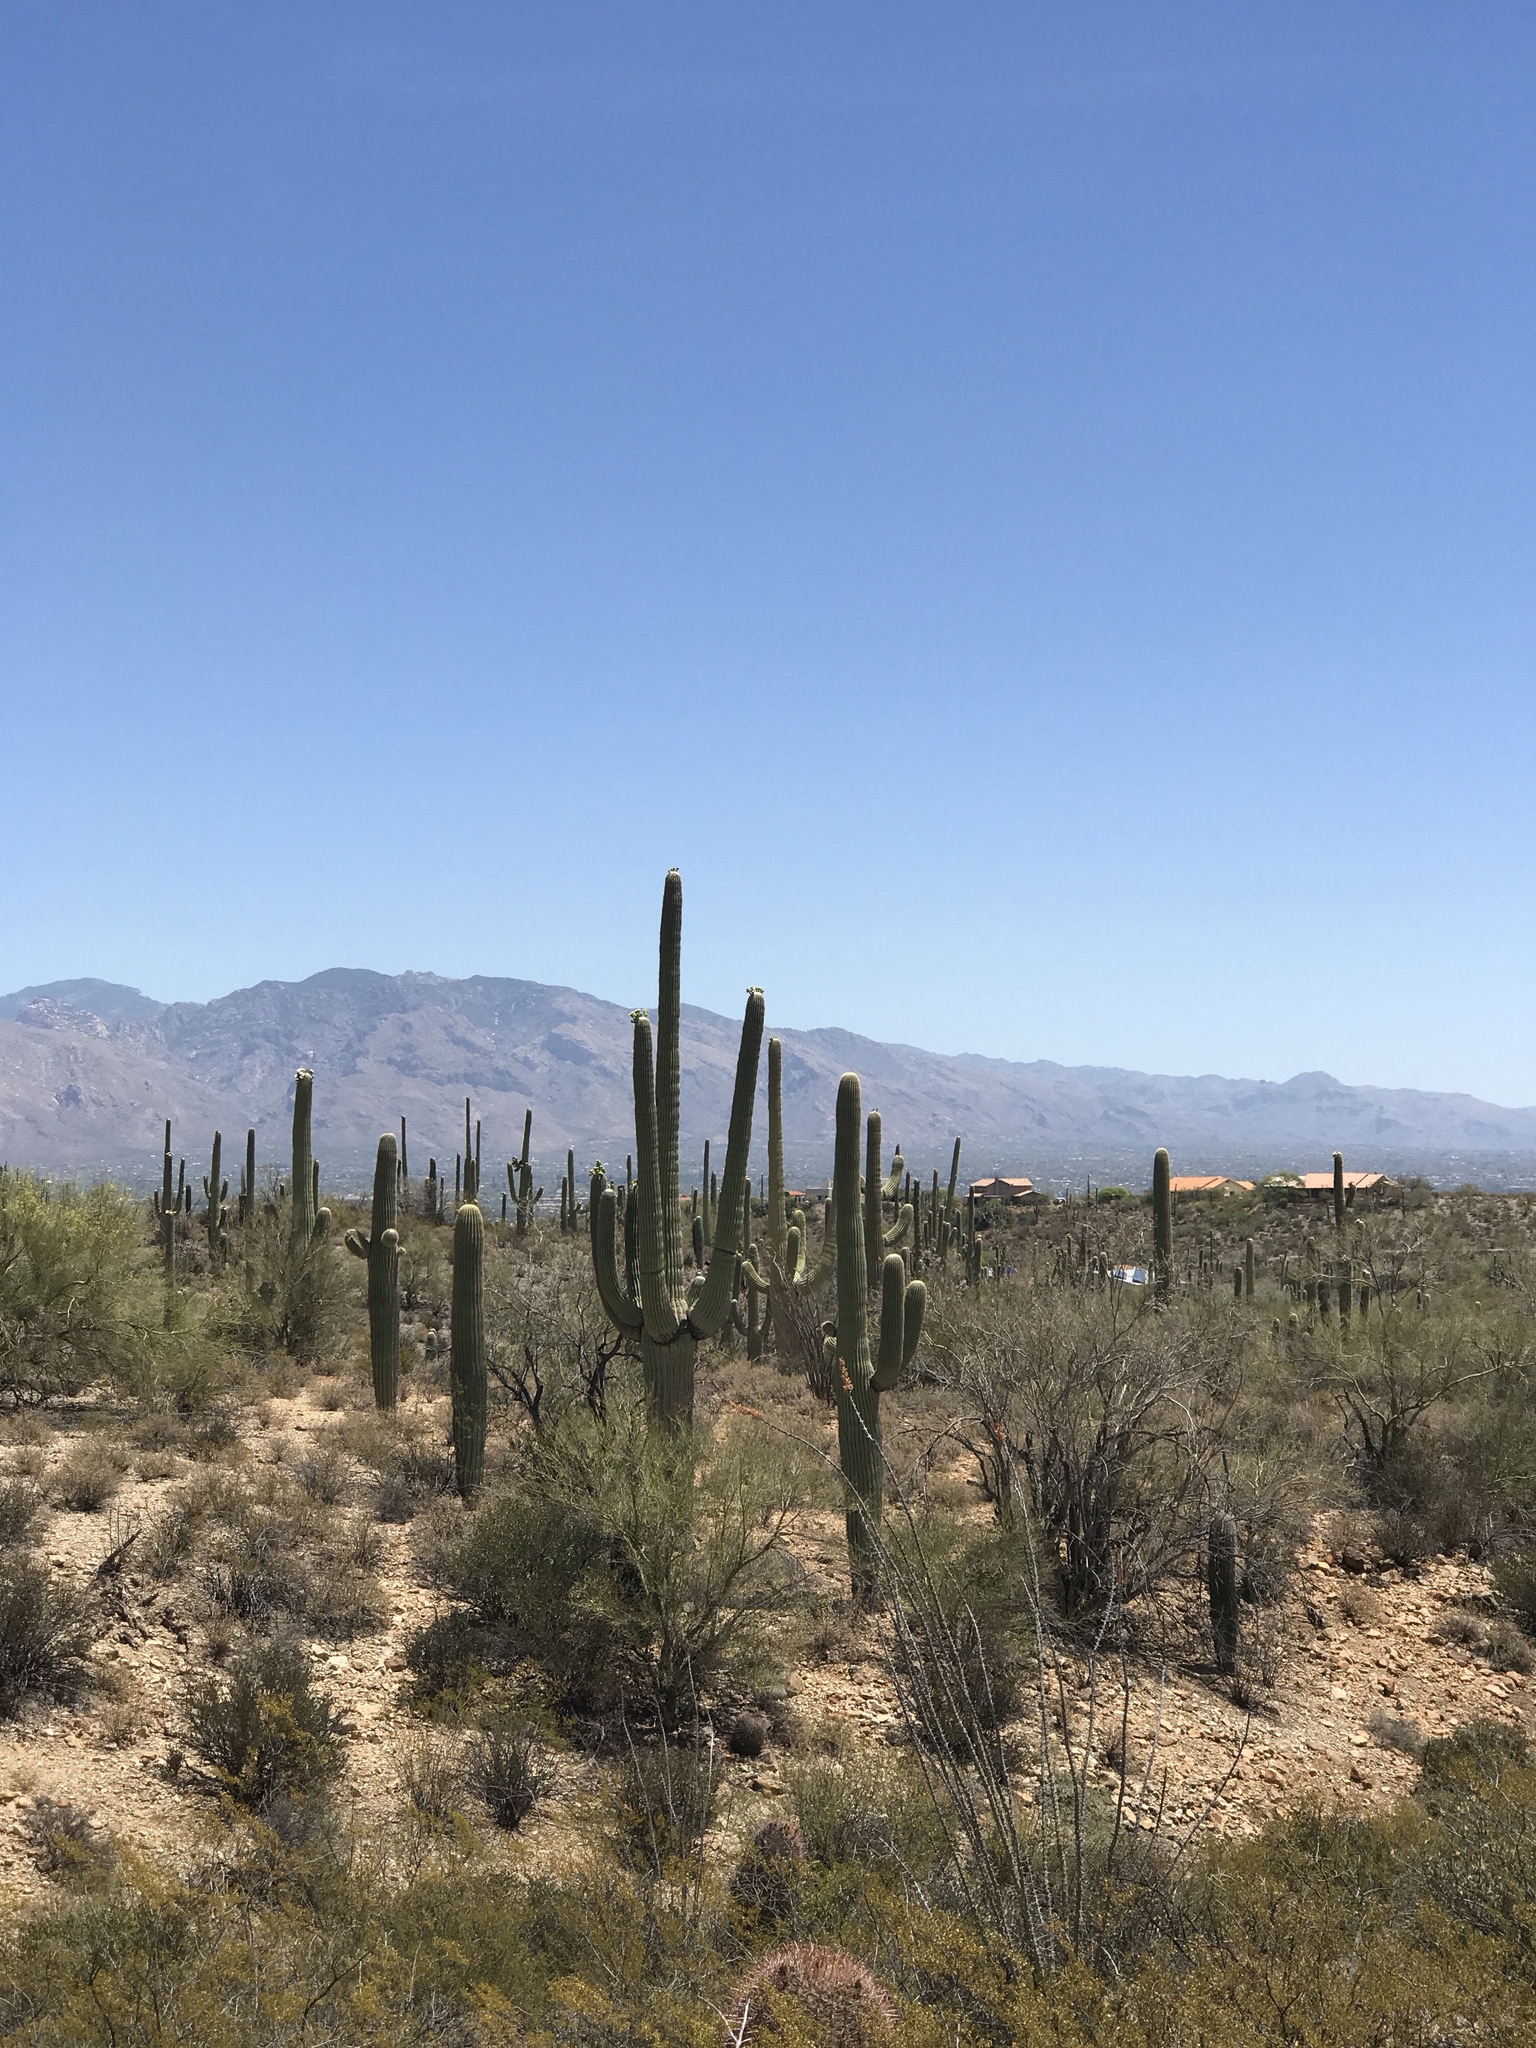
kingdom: Plantae
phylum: Tracheophyta
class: Magnoliopsida
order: Caryophyllales
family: Cactaceae
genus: Carnegiea
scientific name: Carnegiea gigantea
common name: Saguaro
